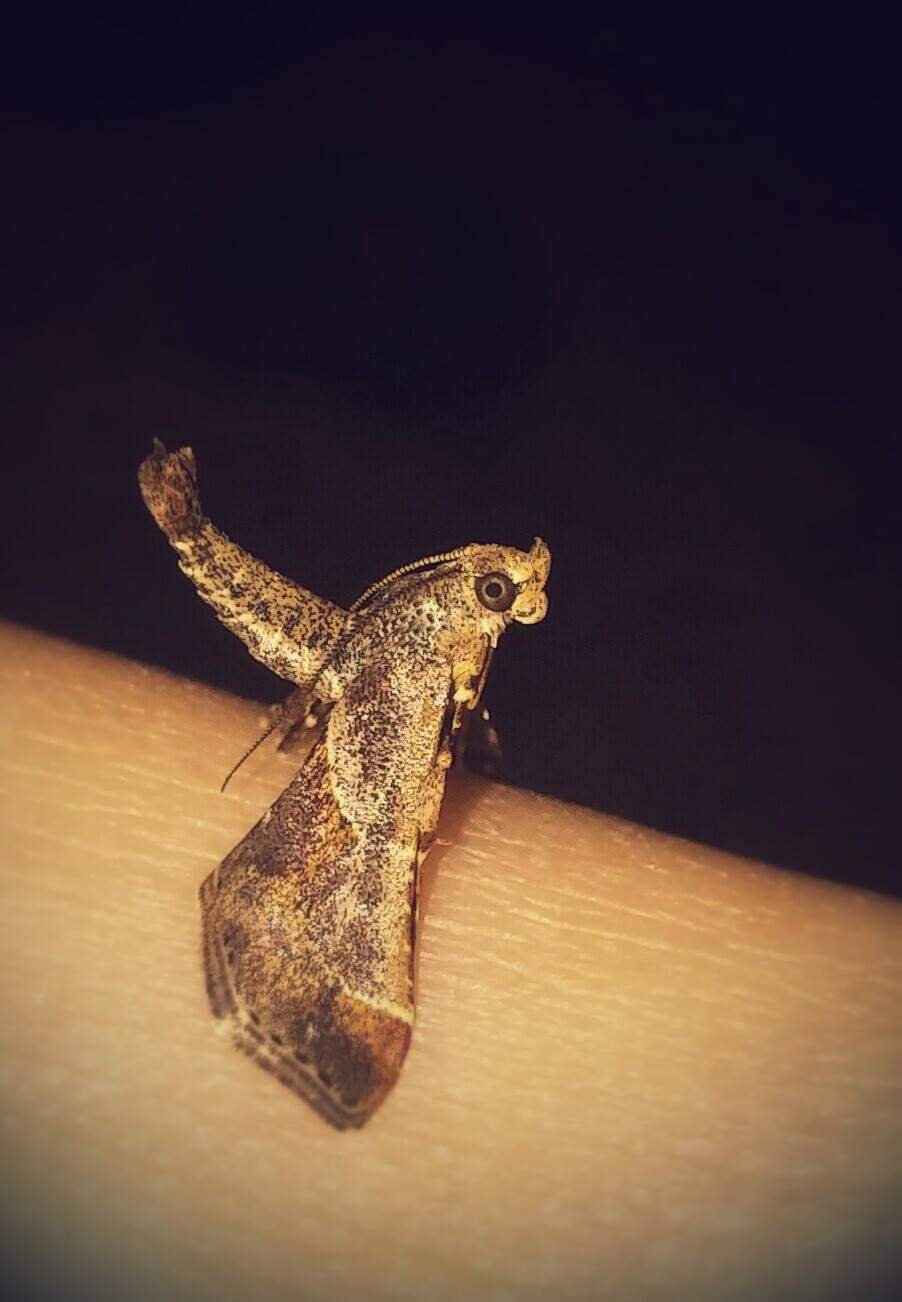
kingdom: Animalia
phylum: Arthropoda
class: Insecta
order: Lepidoptera
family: Pyralidae
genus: Gauna
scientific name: Gauna aegusalis
